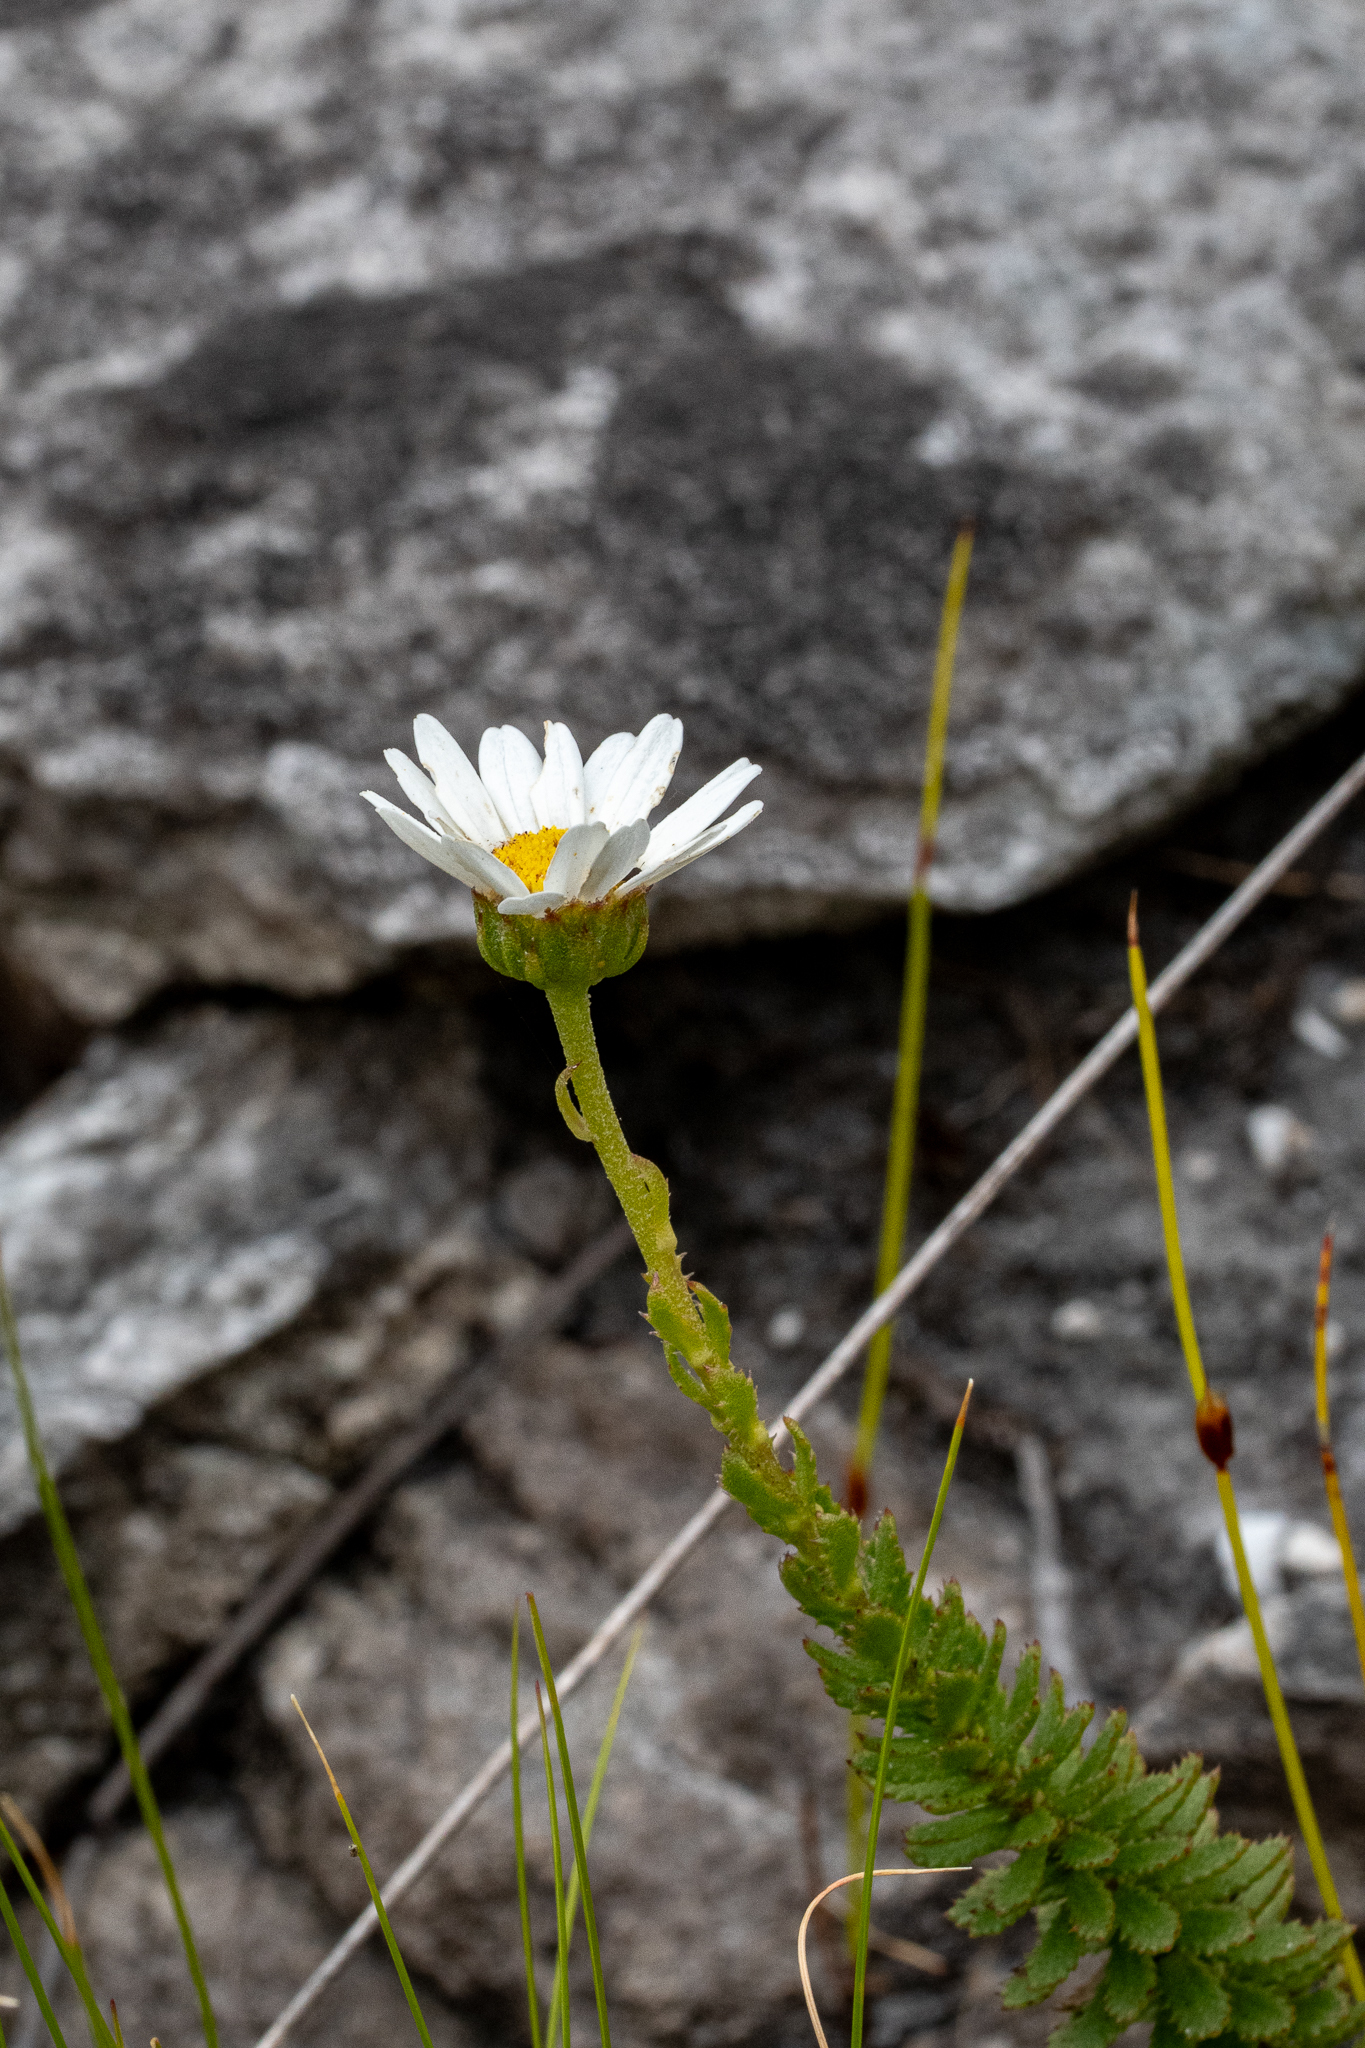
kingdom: Plantae
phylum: Tracheophyta
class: Magnoliopsida
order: Asterales
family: Asteraceae
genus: Osmitopsis
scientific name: Osmitopsis afra
